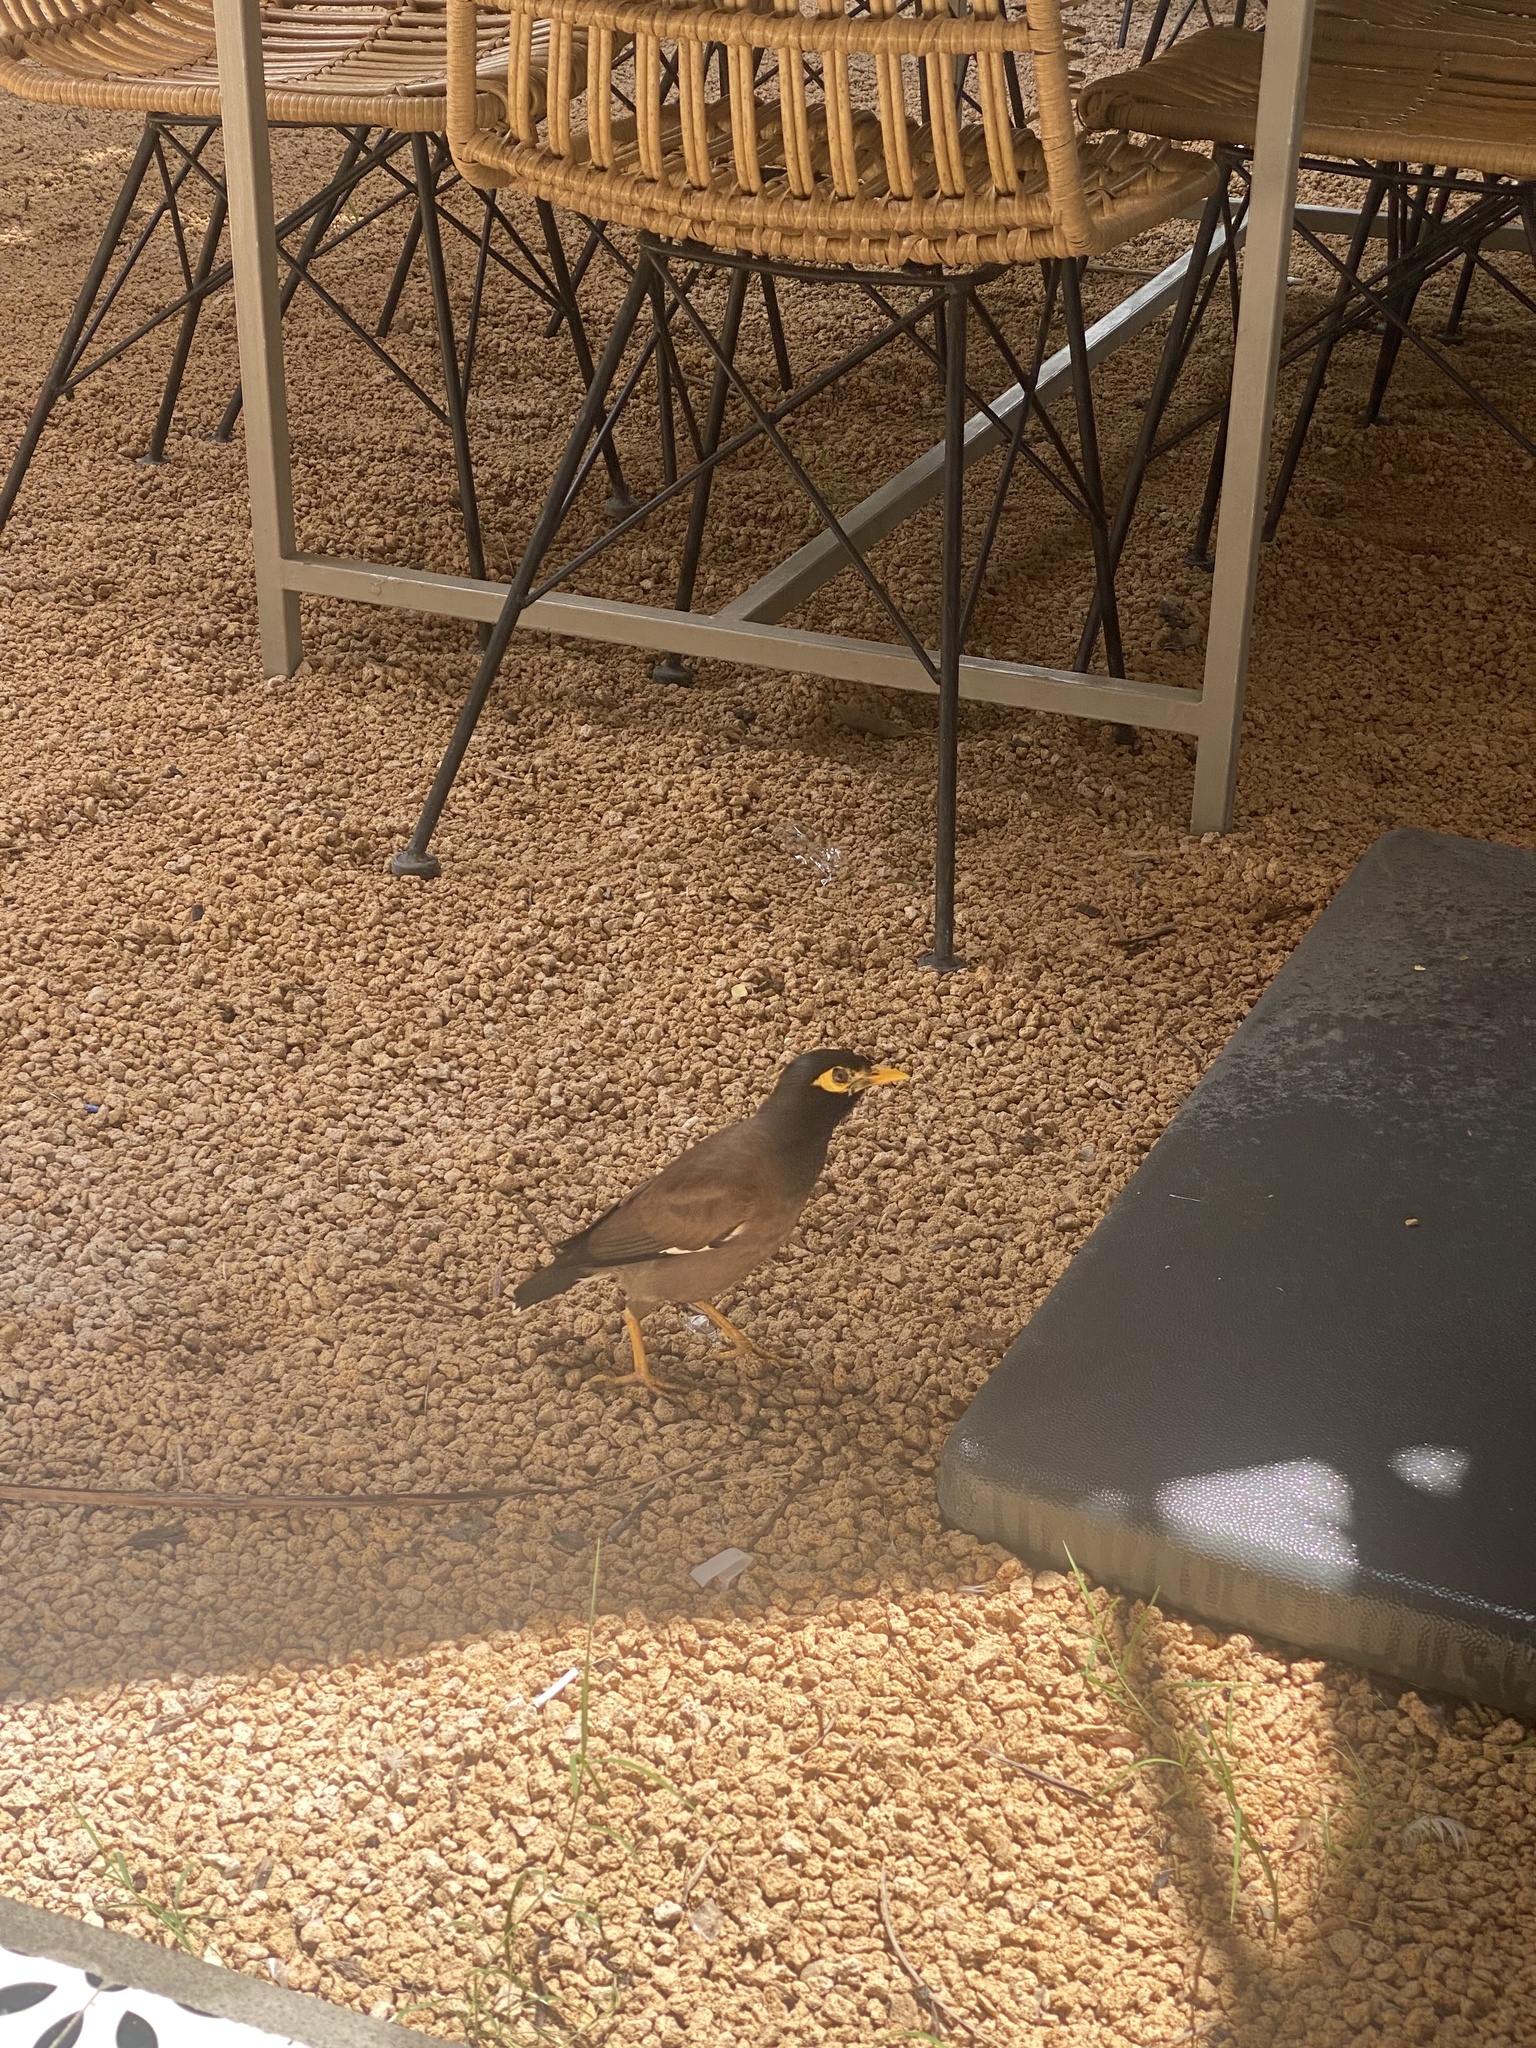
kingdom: Animalia
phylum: Chordata
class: Aves
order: Passeriformes
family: Sturnidae
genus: Acridotheres
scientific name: Acridotheres tristis
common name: Common myna
